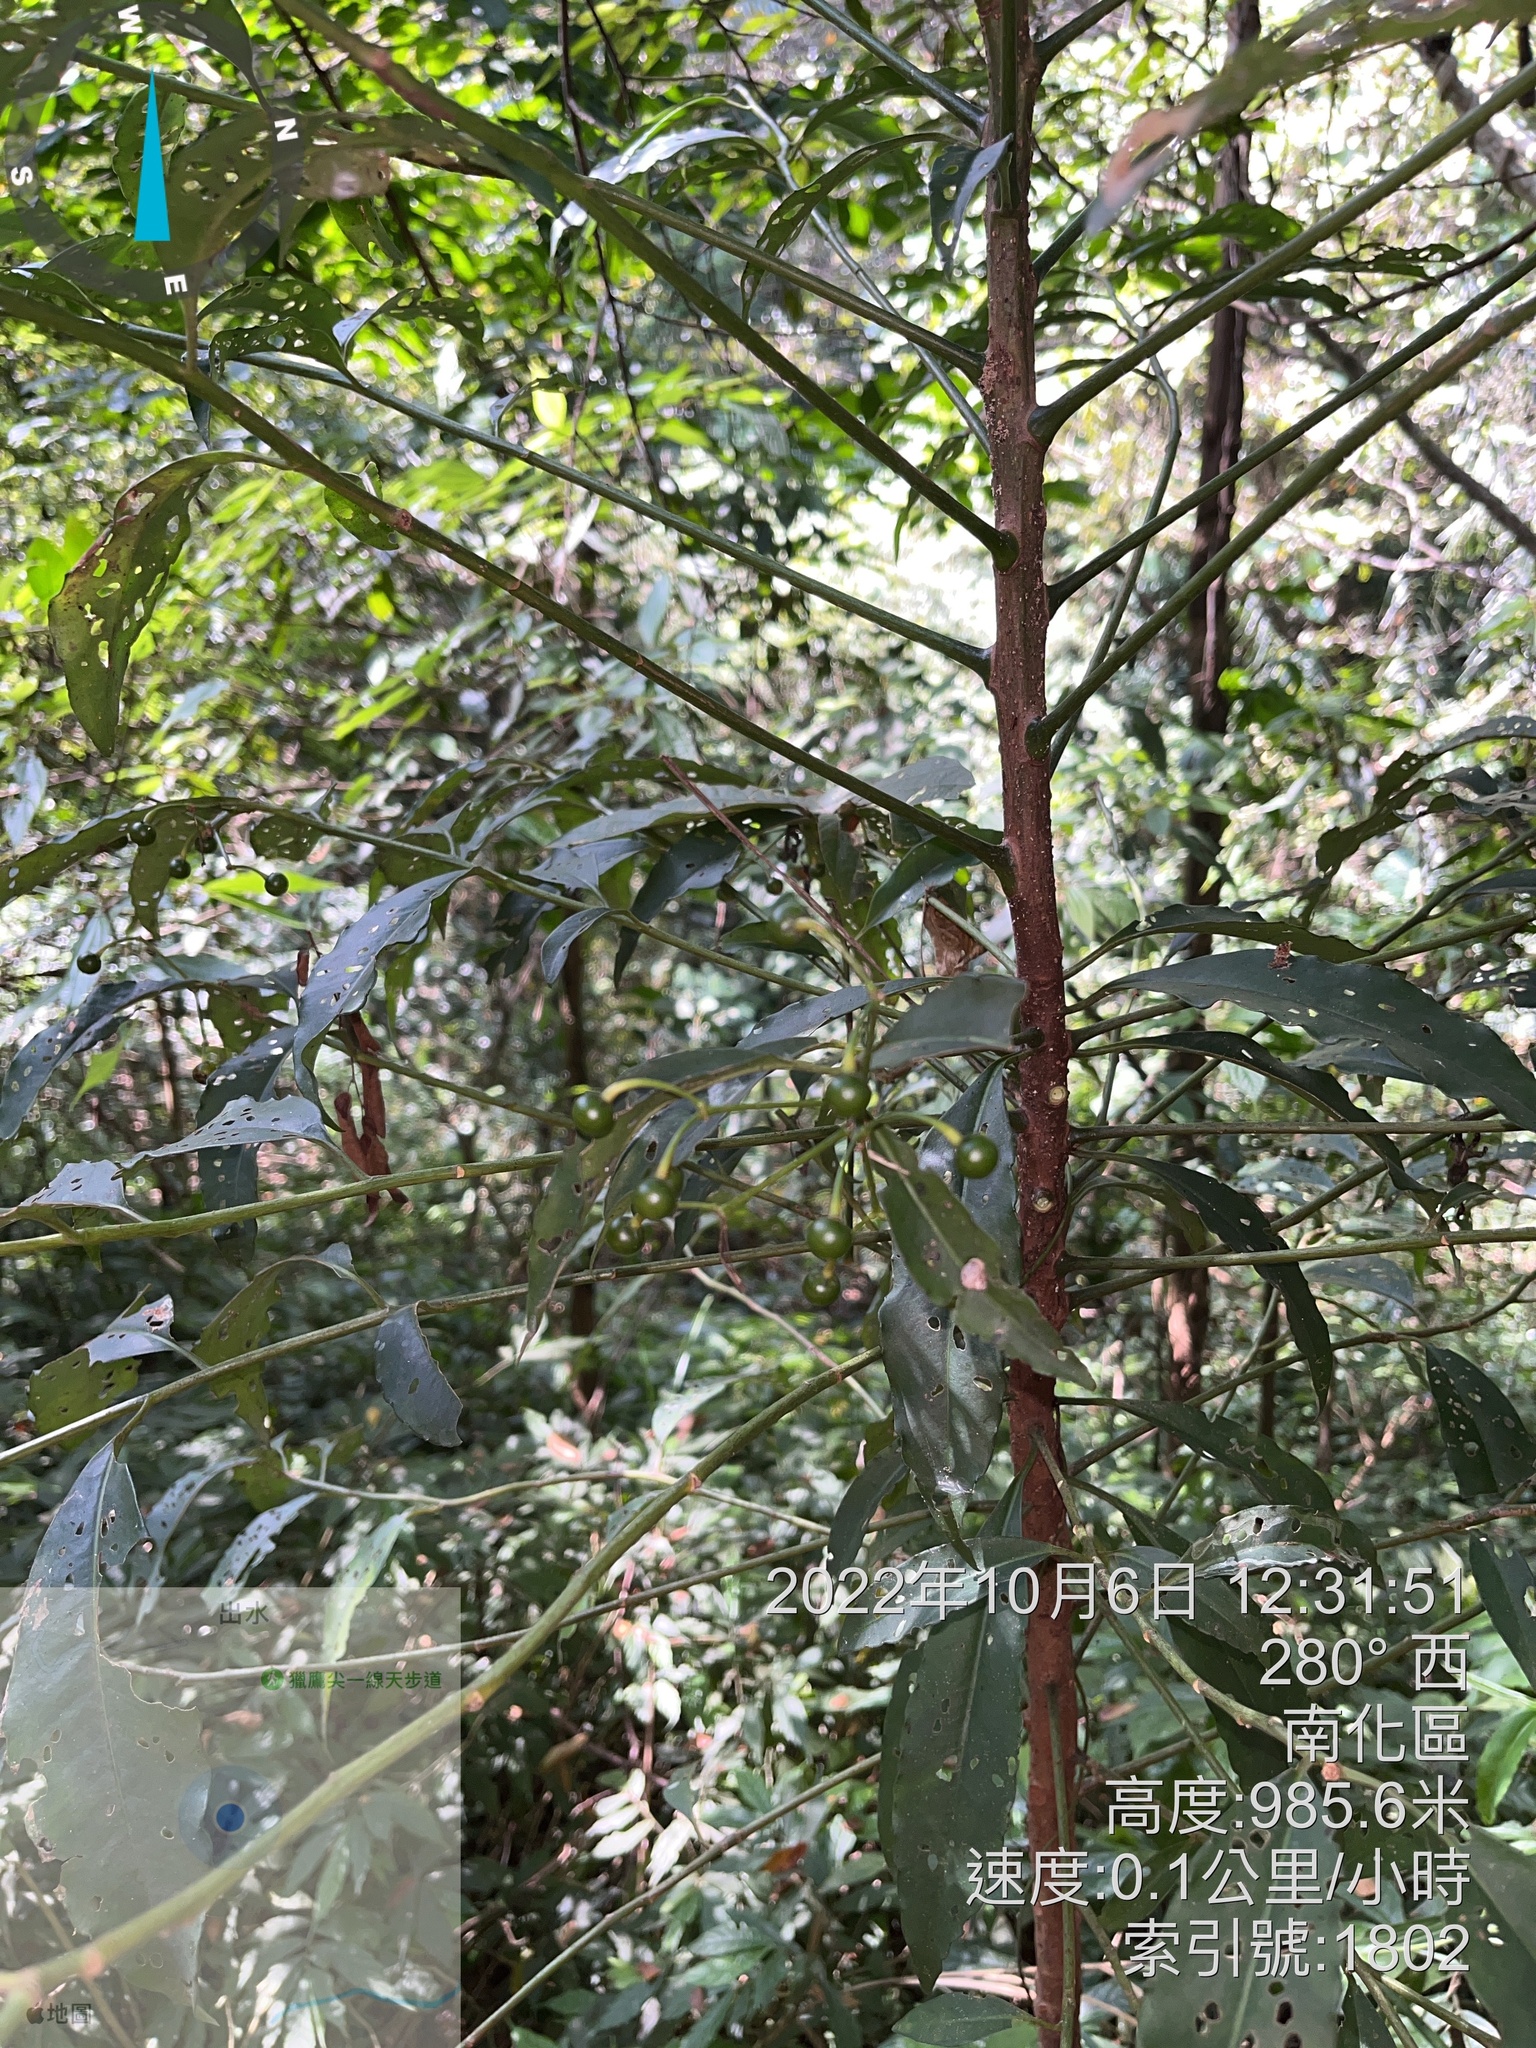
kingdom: Plantae
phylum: Tracheophyta
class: Magnoliopsida
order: Ericales
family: Primulaceae
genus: Ardisia
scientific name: Ardisia polysticta
